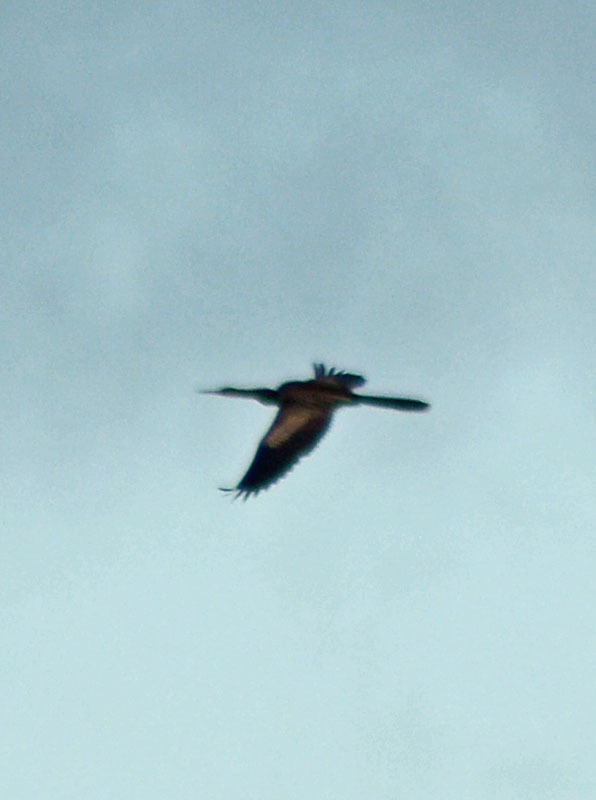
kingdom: Animalia
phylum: Chordata
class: Aves
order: Suliformes
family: Anhingidae
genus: Anhinga
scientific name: Anhinga anhinga
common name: Anhinga
